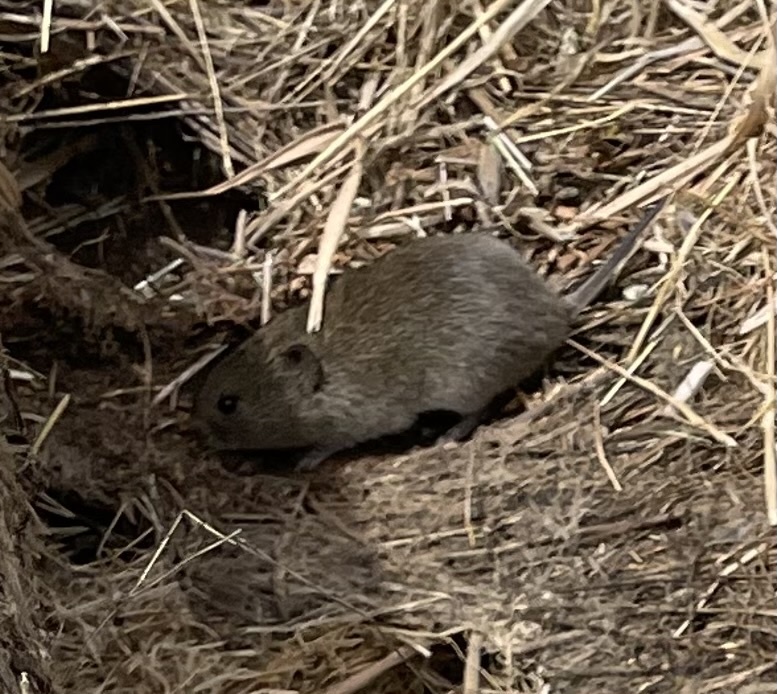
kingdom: Animalia
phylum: Chordata
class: Mammalia
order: Rodentia
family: Cricetidae
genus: Microtus
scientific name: Microtus californicus
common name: California vole
